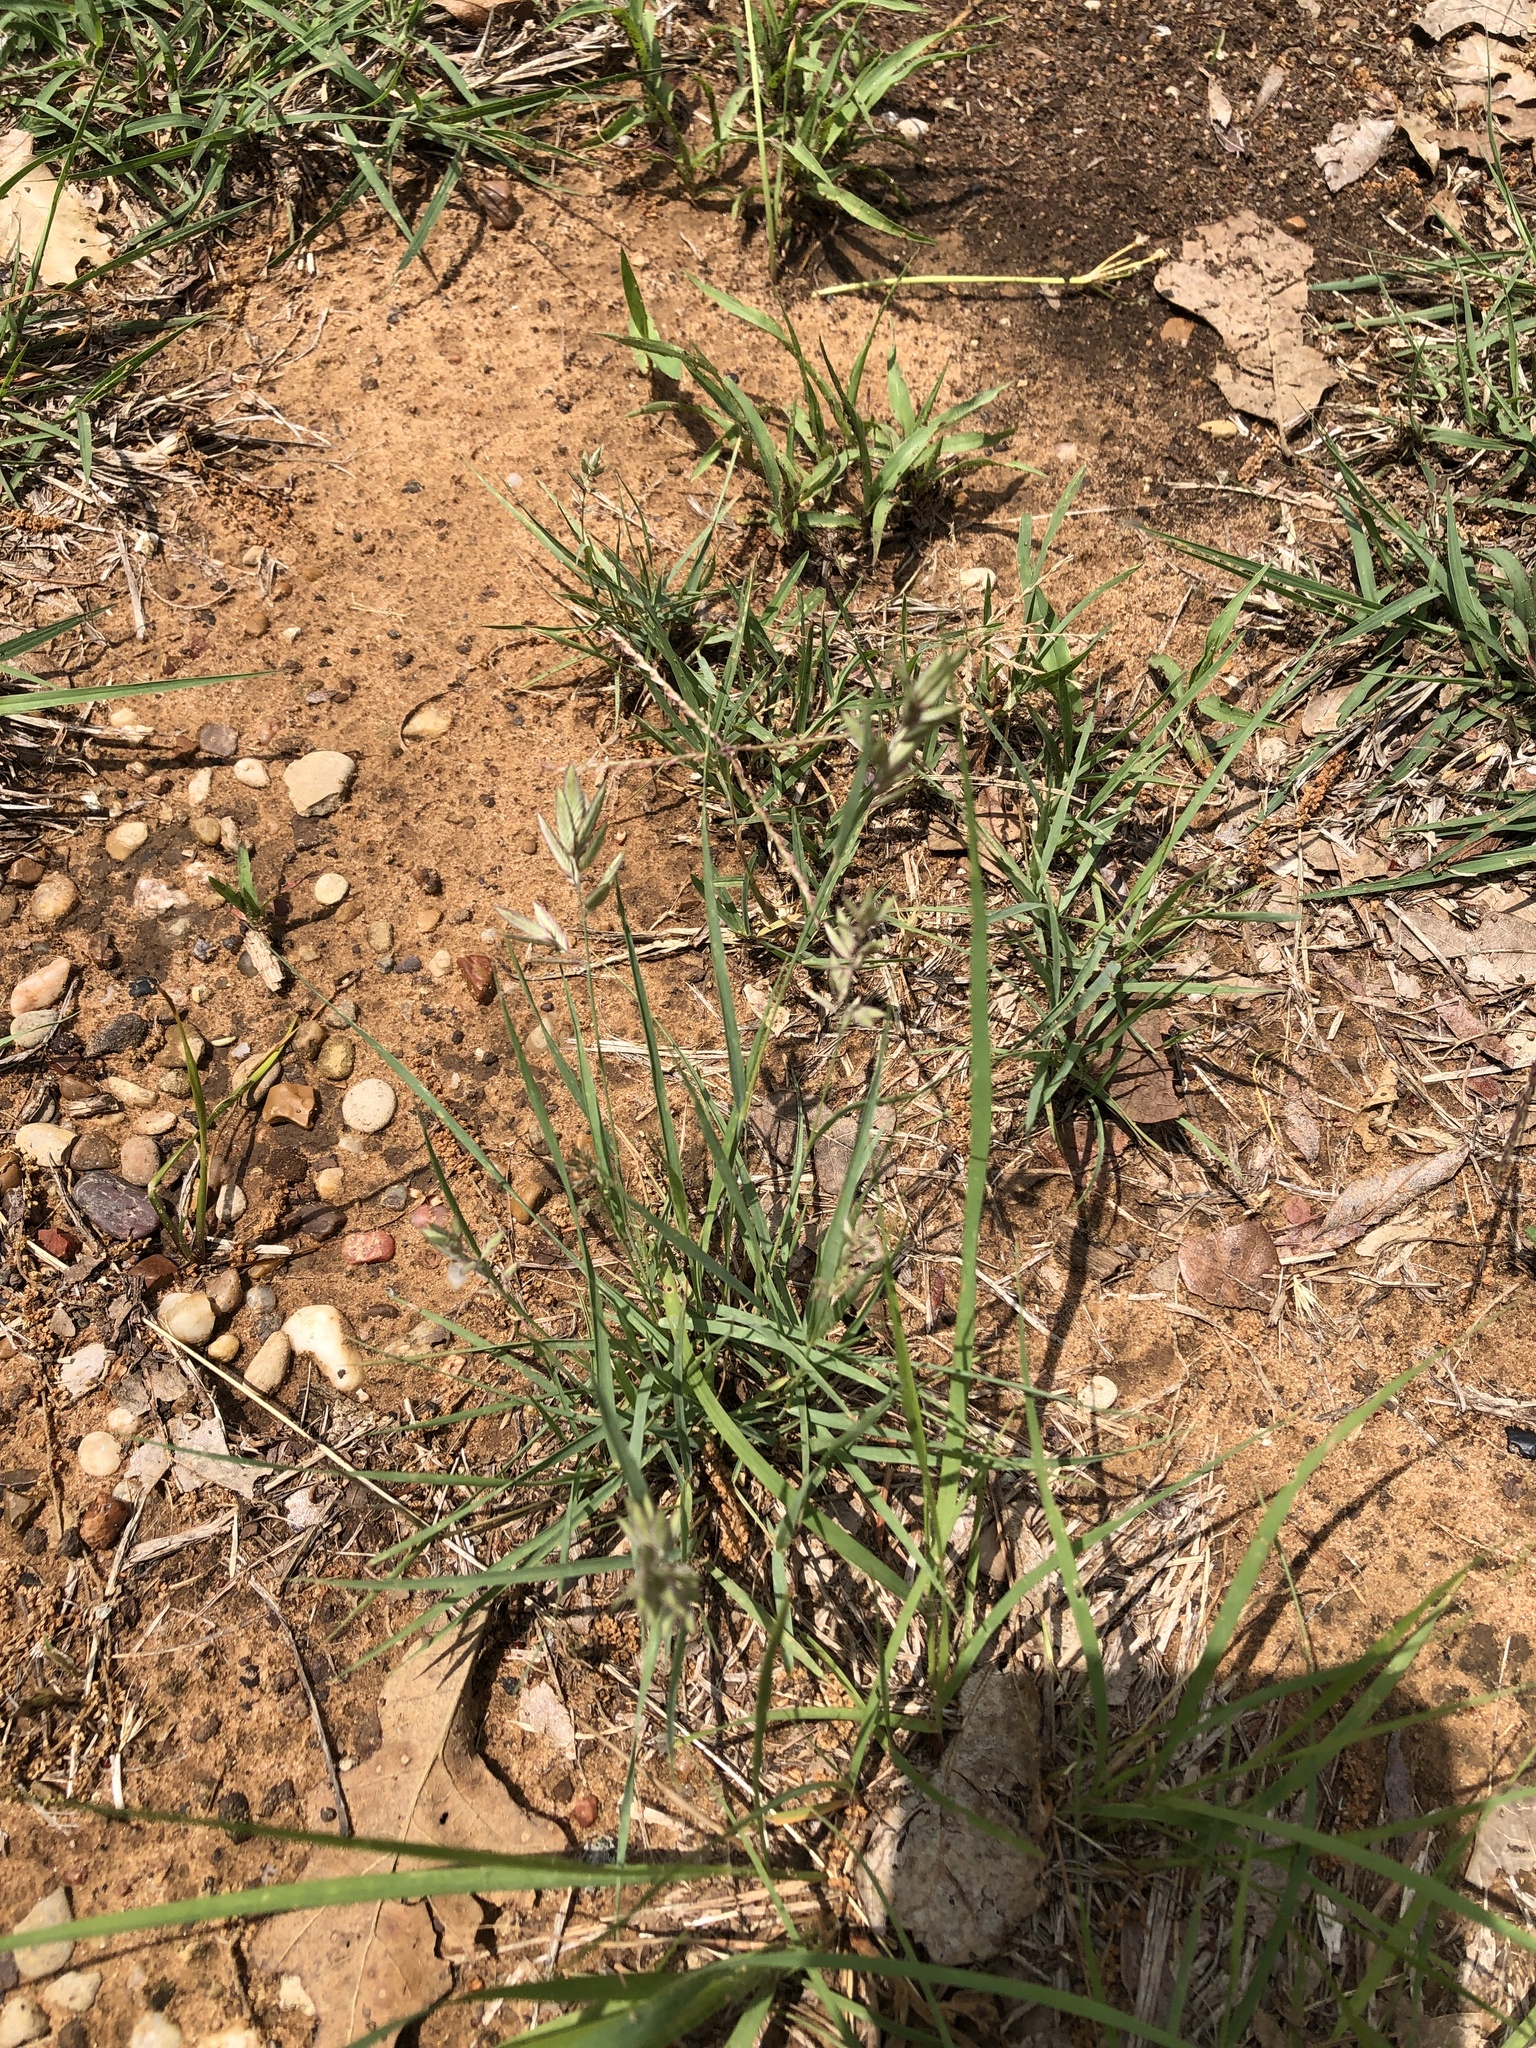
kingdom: Plantae
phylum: Tracheophyta
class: Liliopsida
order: Poales
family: Poaceae
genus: Eragrostis
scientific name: Eragrostis secundiflora
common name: Red love grass
